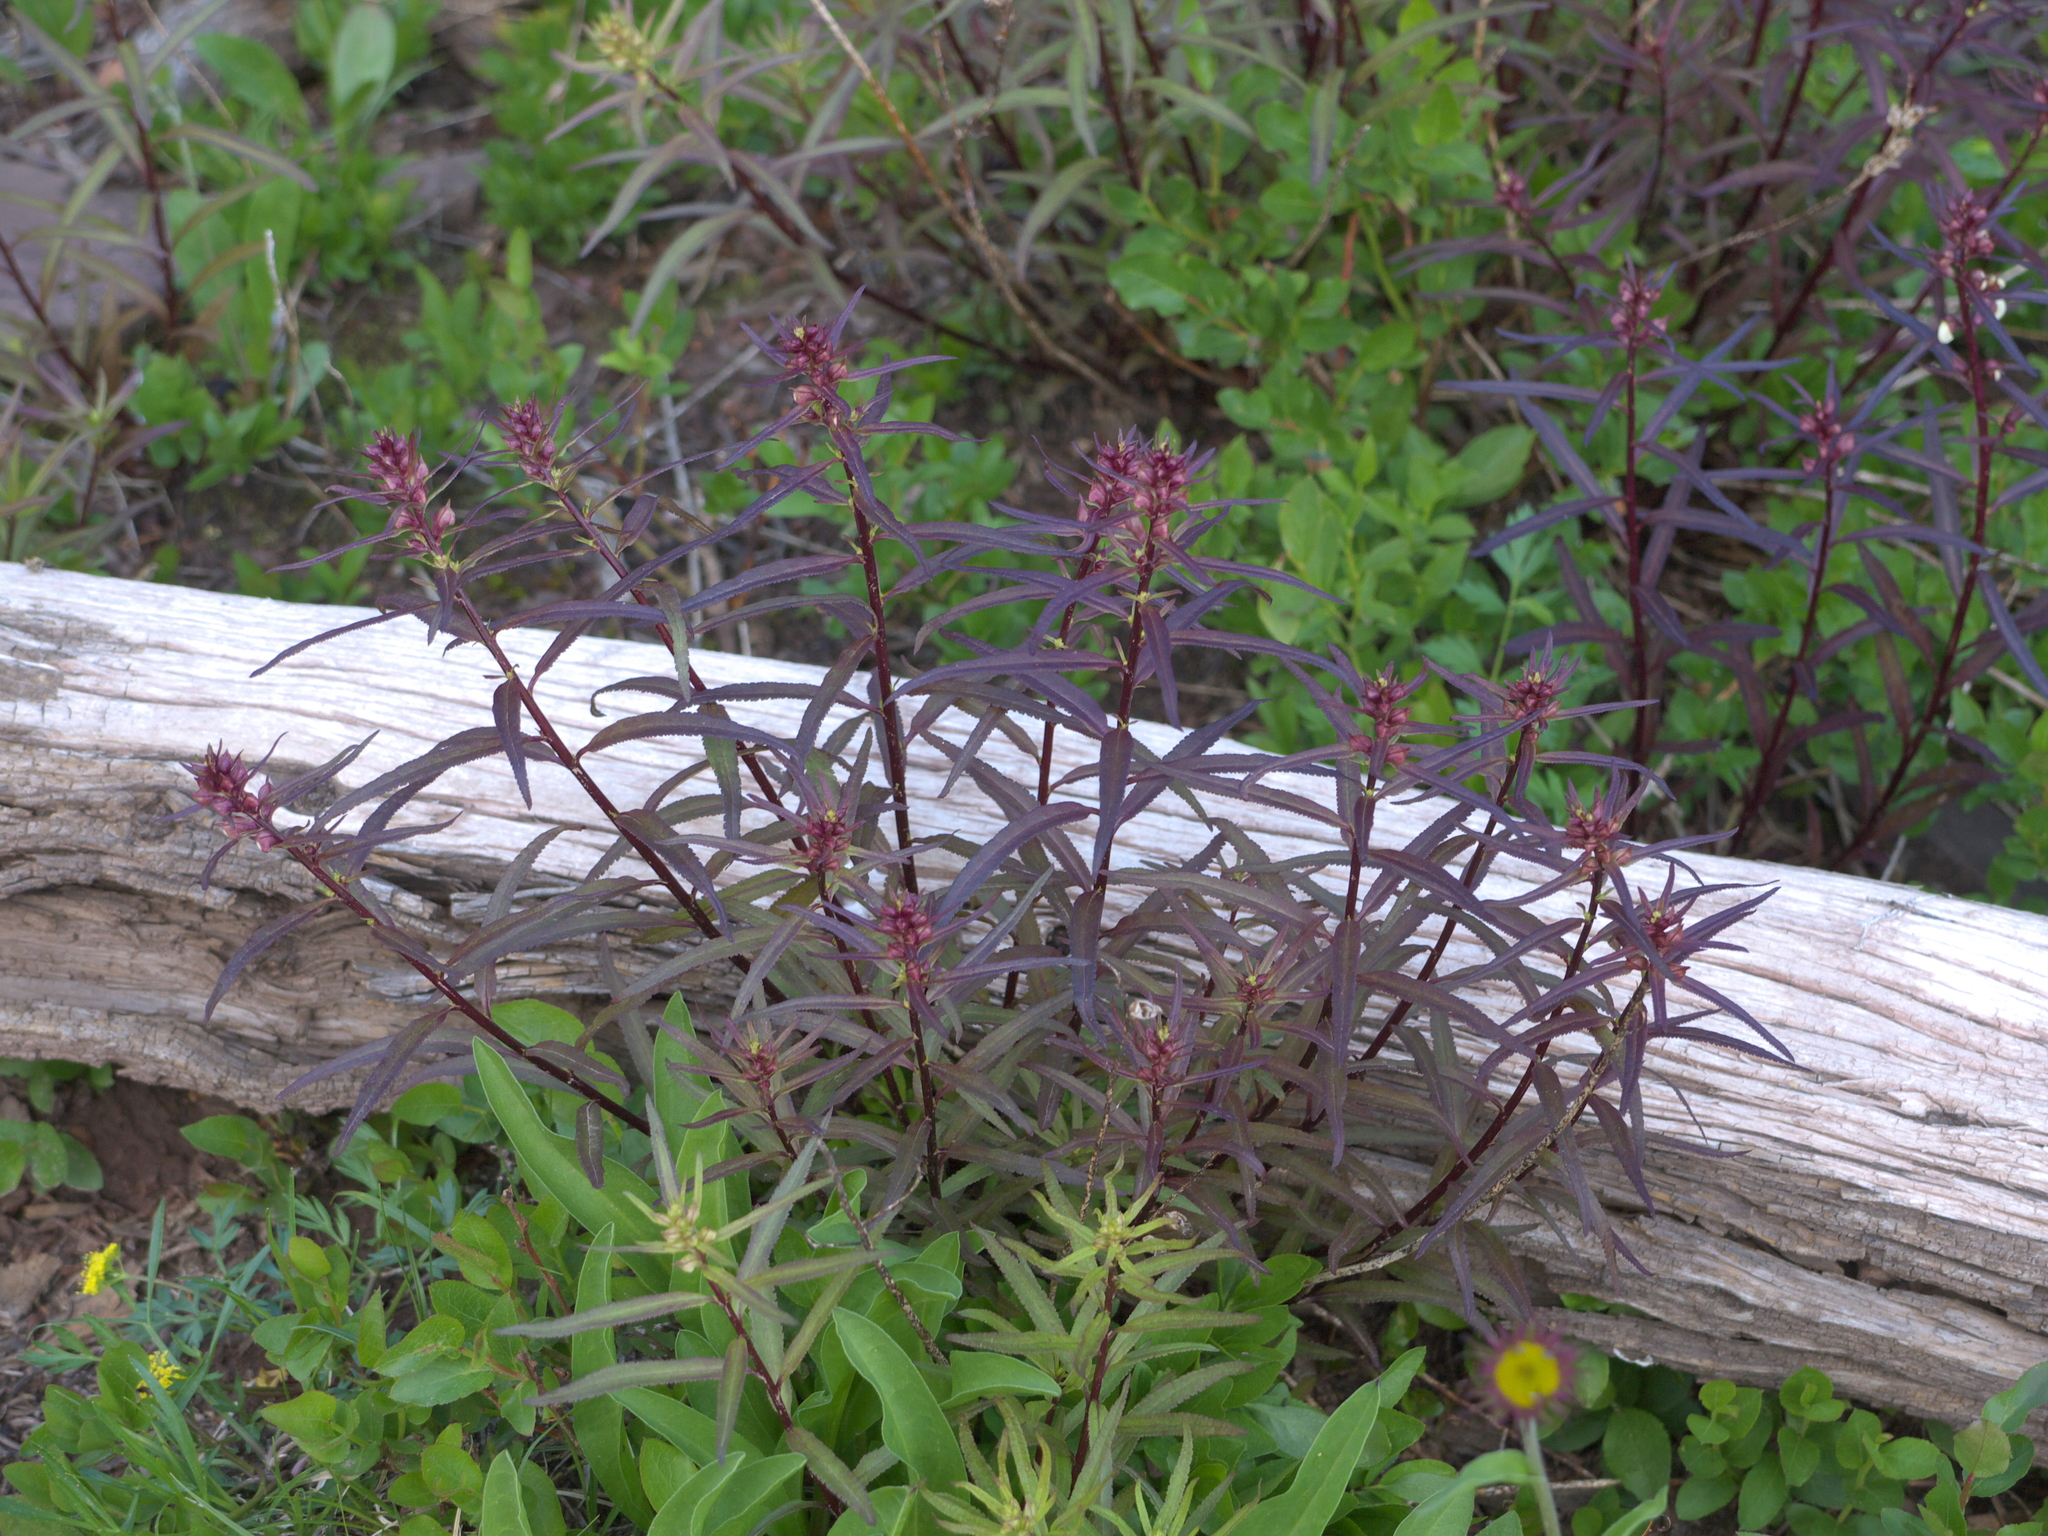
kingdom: Plantae
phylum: Tracheophyta
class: Magnoliopsida
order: Lamiales
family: Orobanchaceae
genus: Pedicularis
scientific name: Pedicularis racemosa
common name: Leafy lousewort
